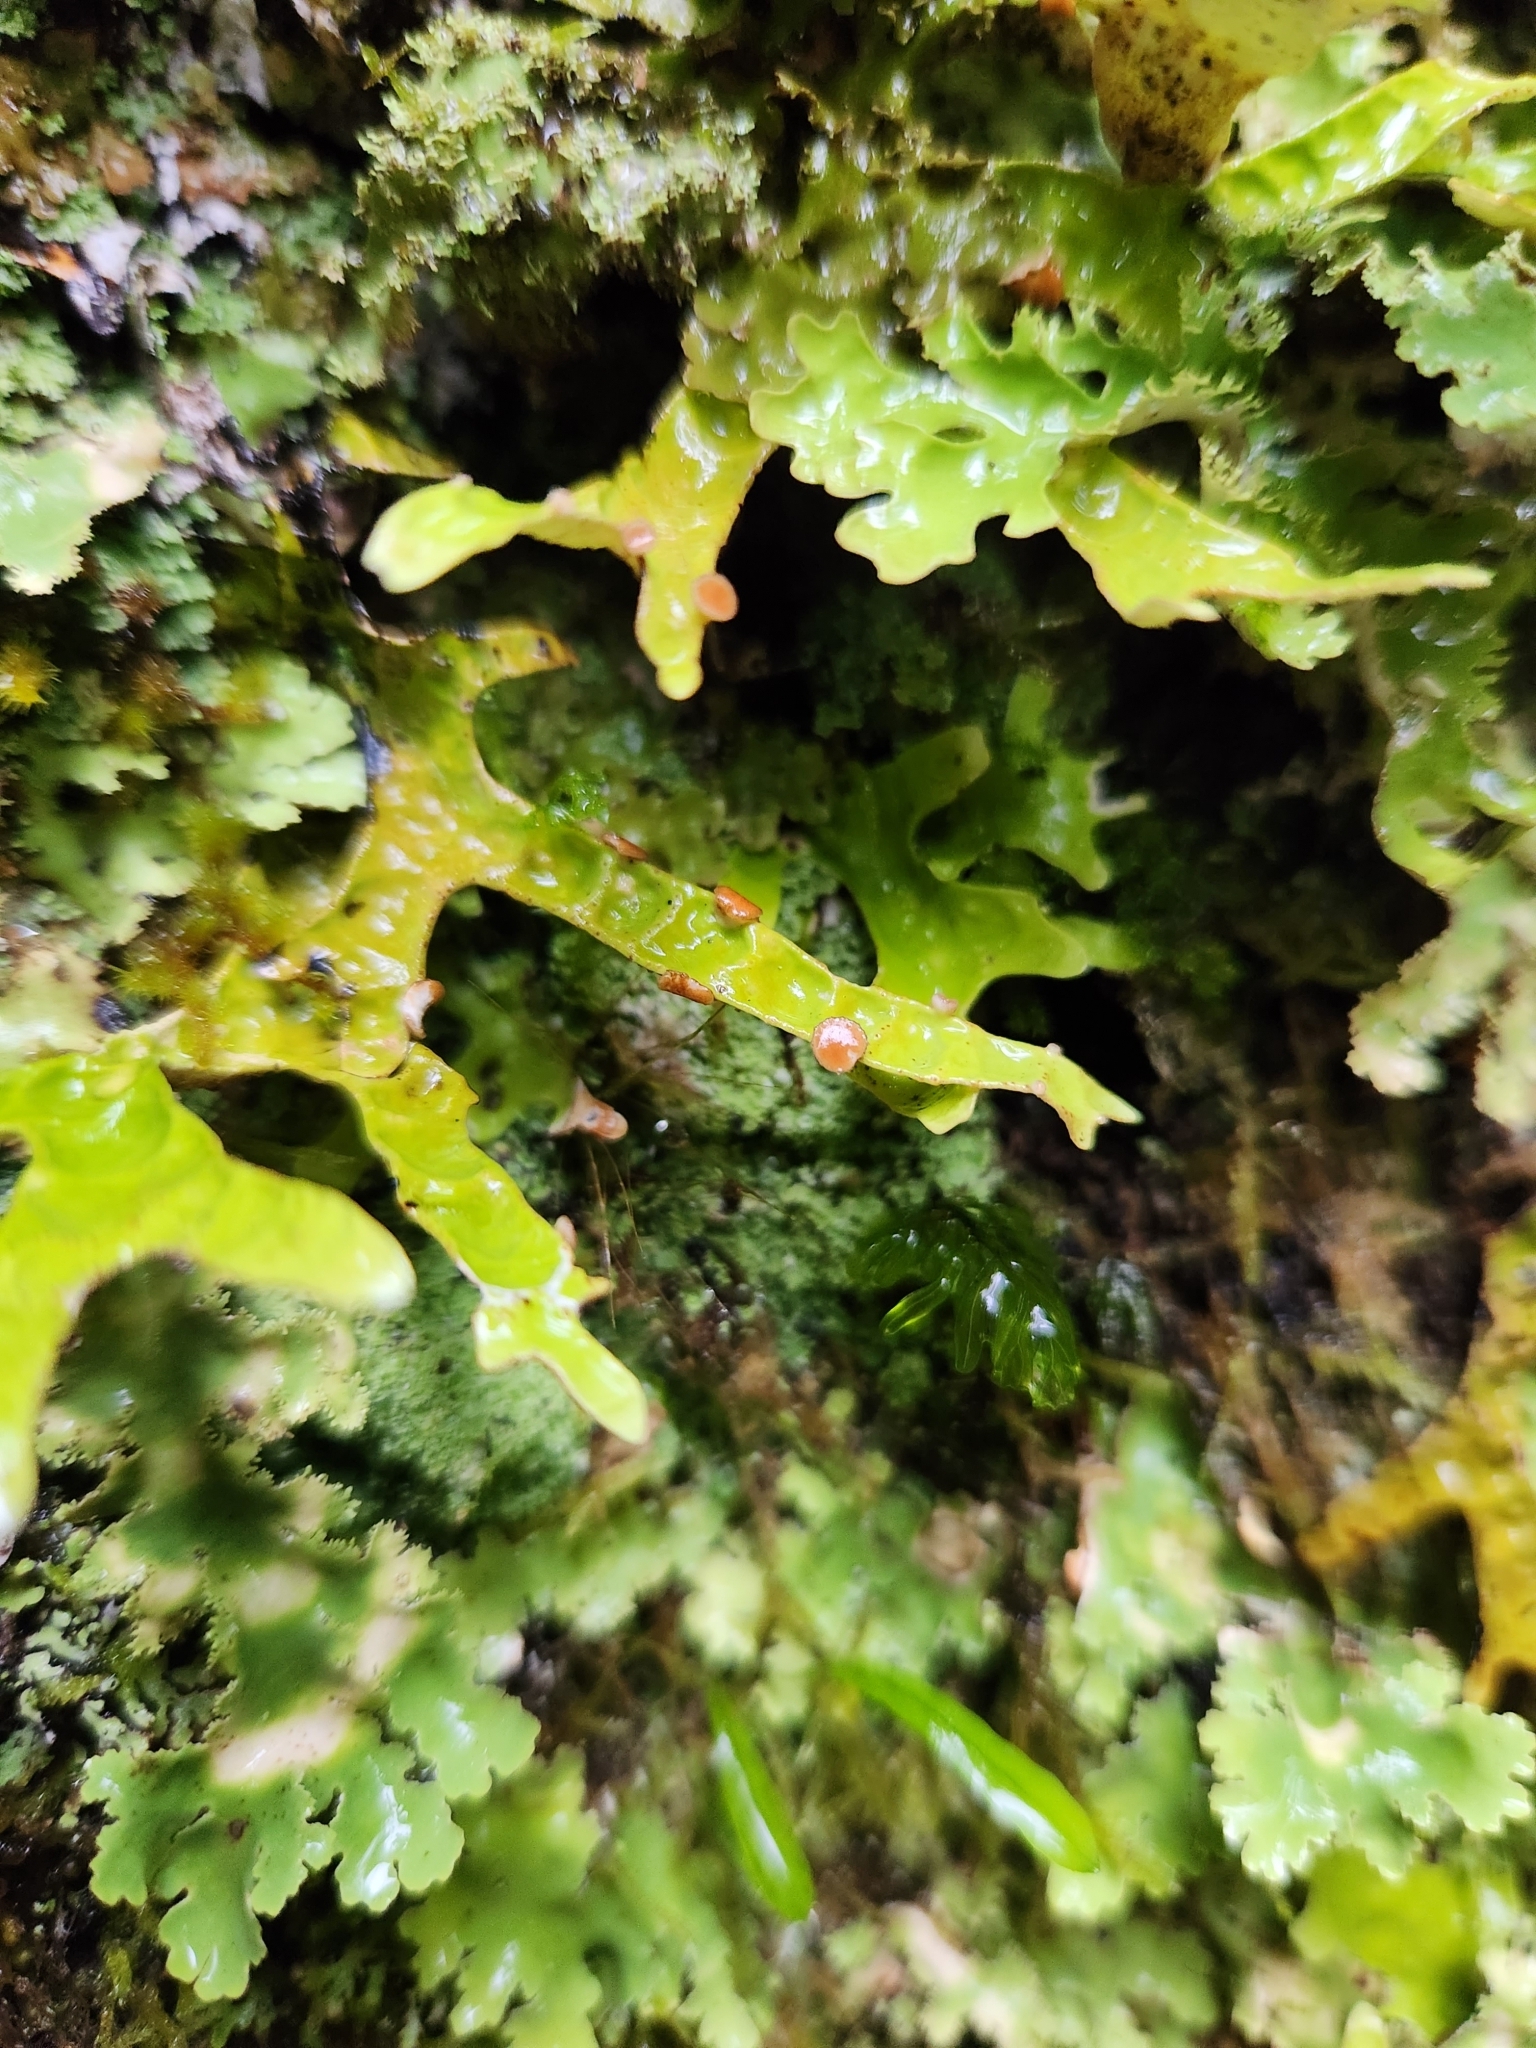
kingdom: Fungi
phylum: Ascomycota
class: Lecanoromycetes
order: Peltigerales
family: Lobariaceae
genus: Pseudocyphellaria
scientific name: Pseudocyphellaria rufovirescens
